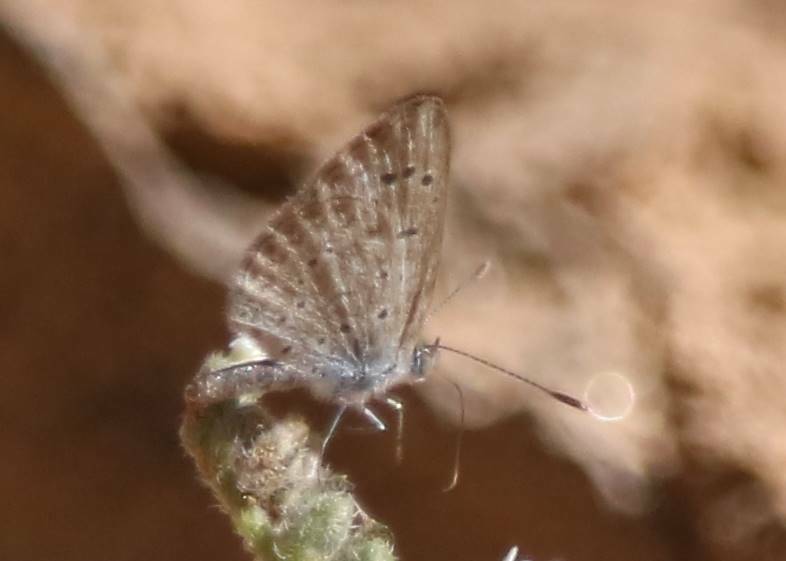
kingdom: Animalia
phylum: Arthropoda
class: Insecta
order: Lepidoptera
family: Lycaenidae
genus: Zizeeria
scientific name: Zizeeria knysna
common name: African grass blue
